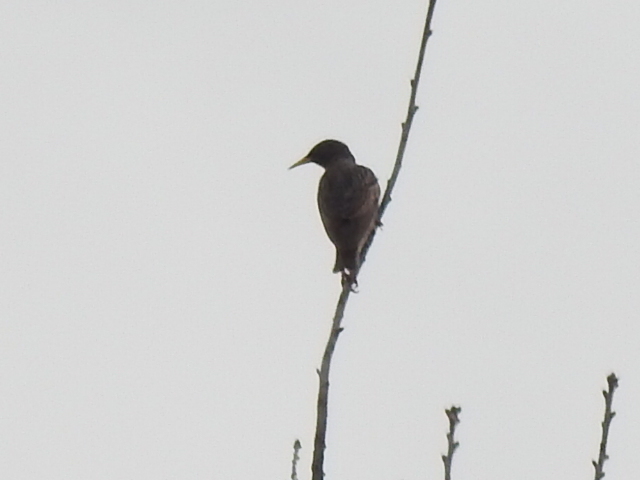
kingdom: Animalia
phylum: Chordata
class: Aves
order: Passeriformes
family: Sturnidae
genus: Sturnus
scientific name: Sturnus vulgaris
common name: Common starling
